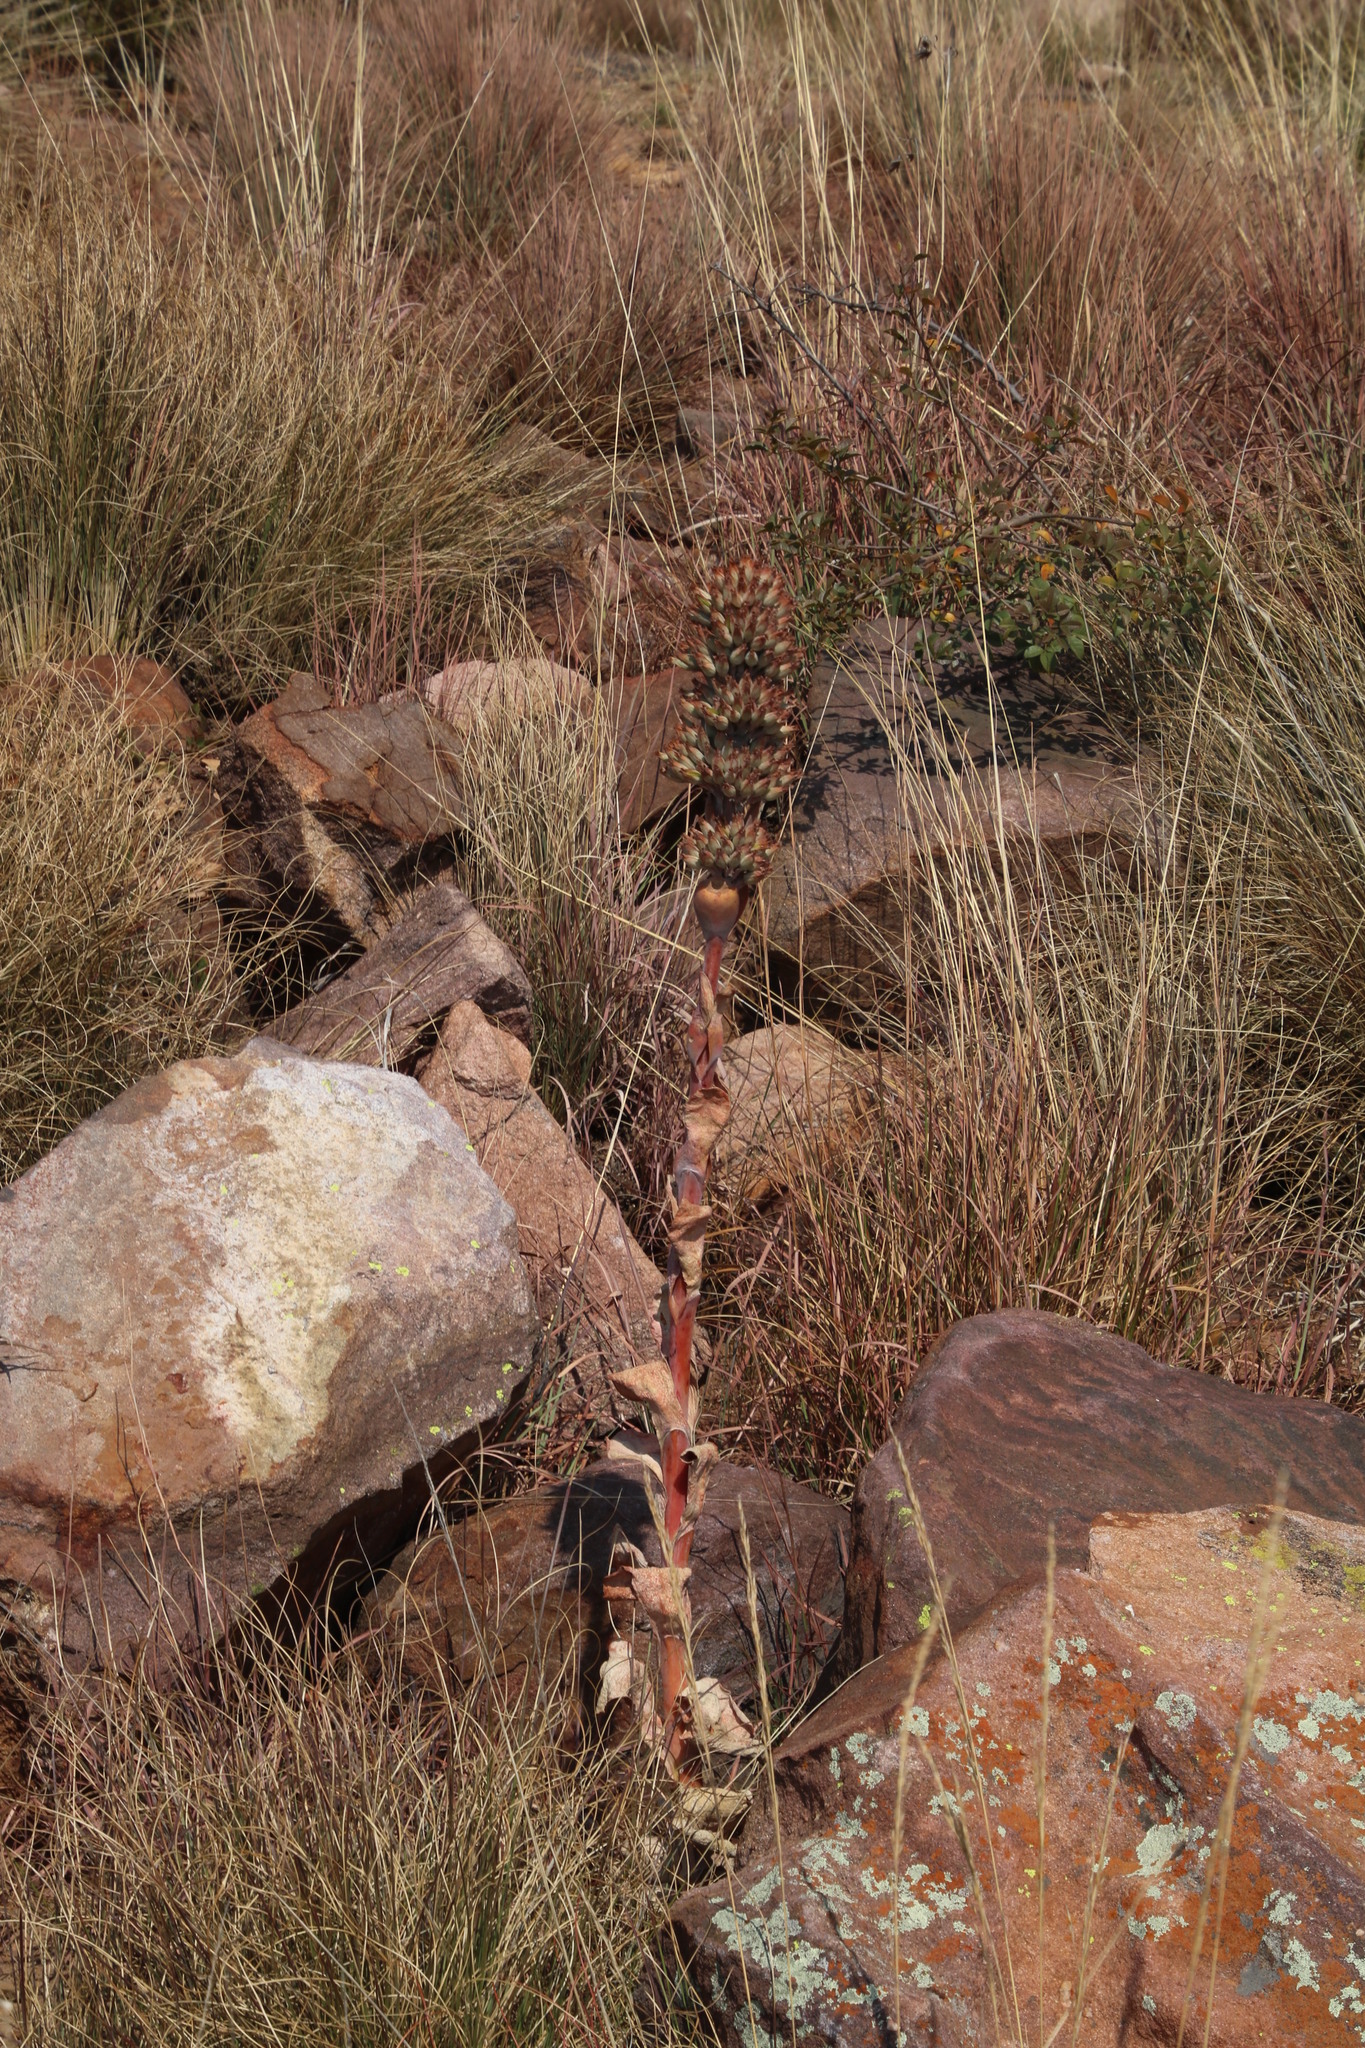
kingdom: Plantae
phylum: Tracheophyta
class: Magnoliopsida
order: Saxifragales
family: Crassulaceae
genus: Kalanchoe
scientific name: Kalanchoe thyrsiflora
